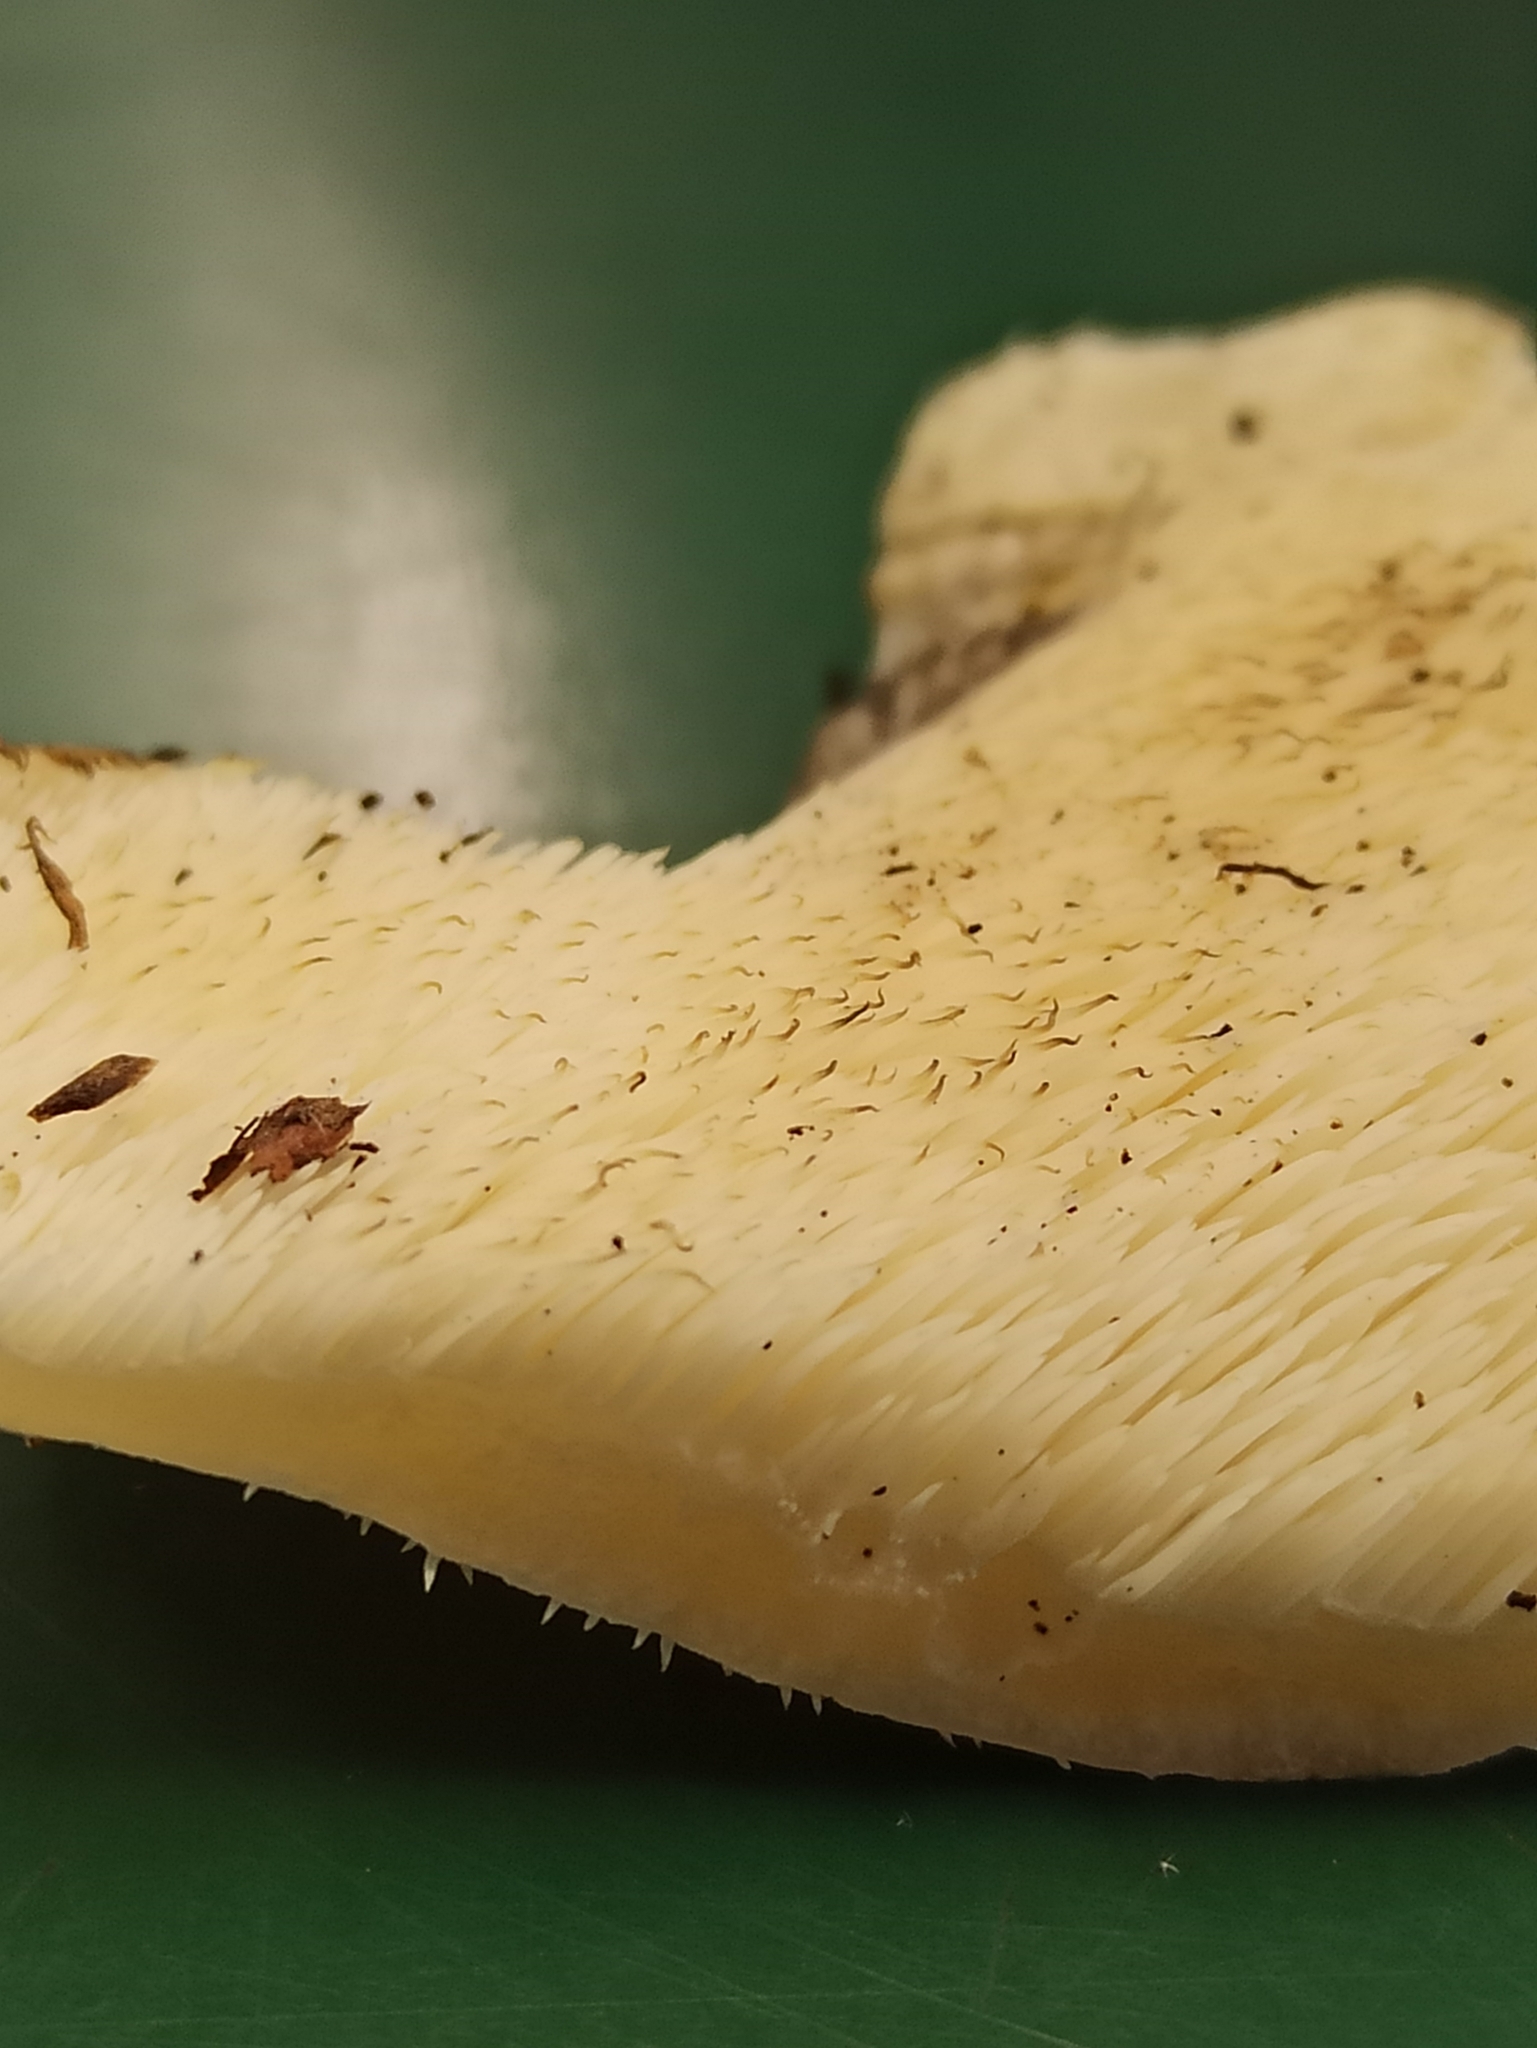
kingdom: Fungi
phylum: Basidiomycota
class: Agaricomycetes
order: Russulales
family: Hericiaceae
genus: Hericium
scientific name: Hericium cirrhatum
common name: Tiered tooth
